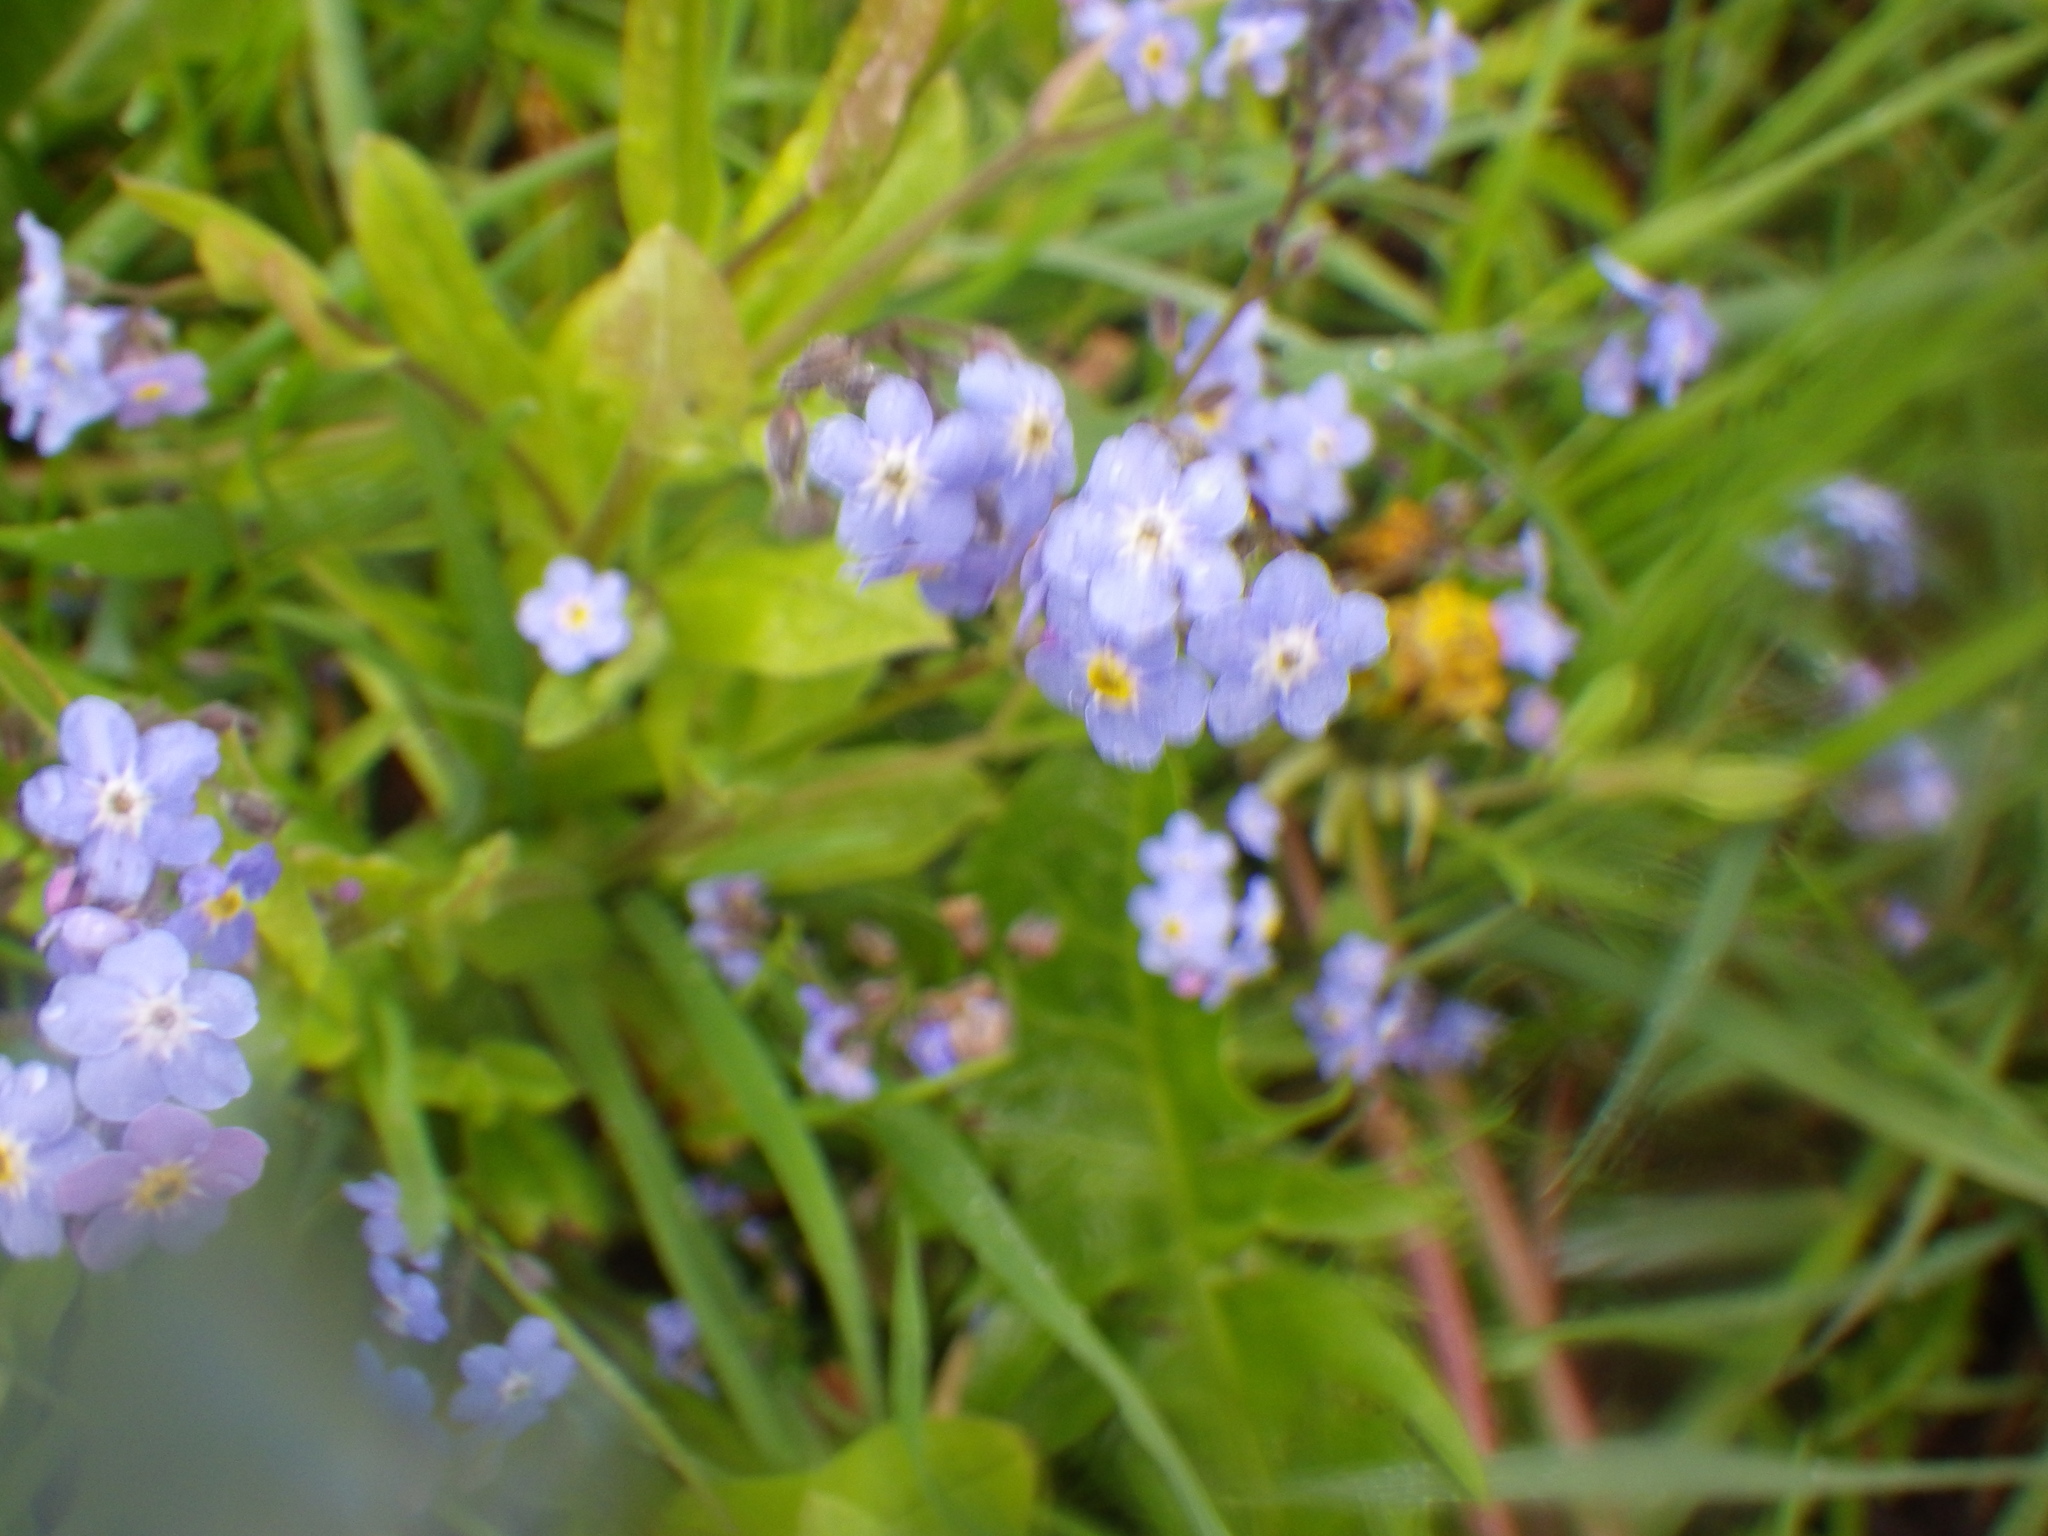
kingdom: Plantae
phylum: Tracheophyta
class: Magnoliopsida
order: Boraginales
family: Boraginaceae
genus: Myosotis
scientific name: Myosotis sylvatica
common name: Wood forget-me-not
